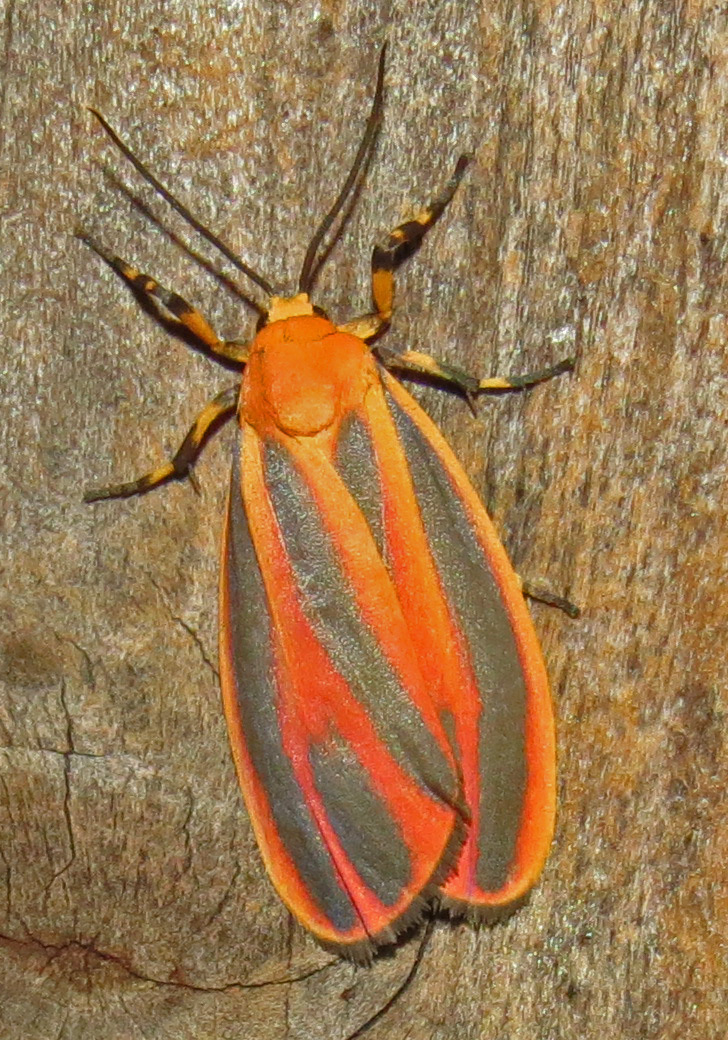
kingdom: Animalia
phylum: Arthropoda
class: Insecta
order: Lepidoptera
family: Erebidae
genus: Hypoprepia
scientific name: Hypoprepia miniata
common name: Scarlet-winged lichen moth
